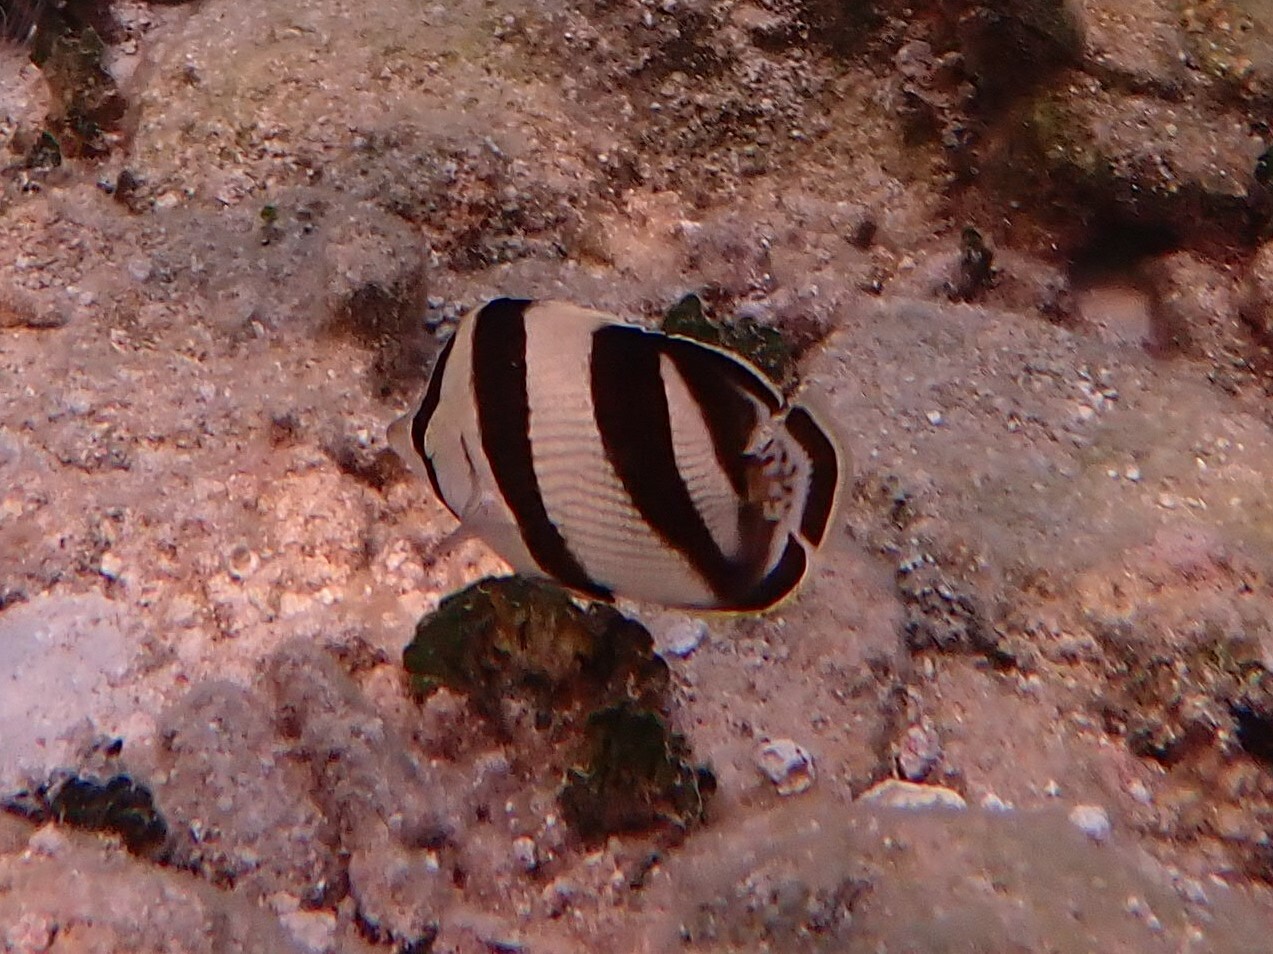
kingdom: Animalia
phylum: Chordata
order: Perciformes
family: Chaetodontidae
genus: Chaetodon
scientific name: Chaetodon striatus
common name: Banded butterflyfish
